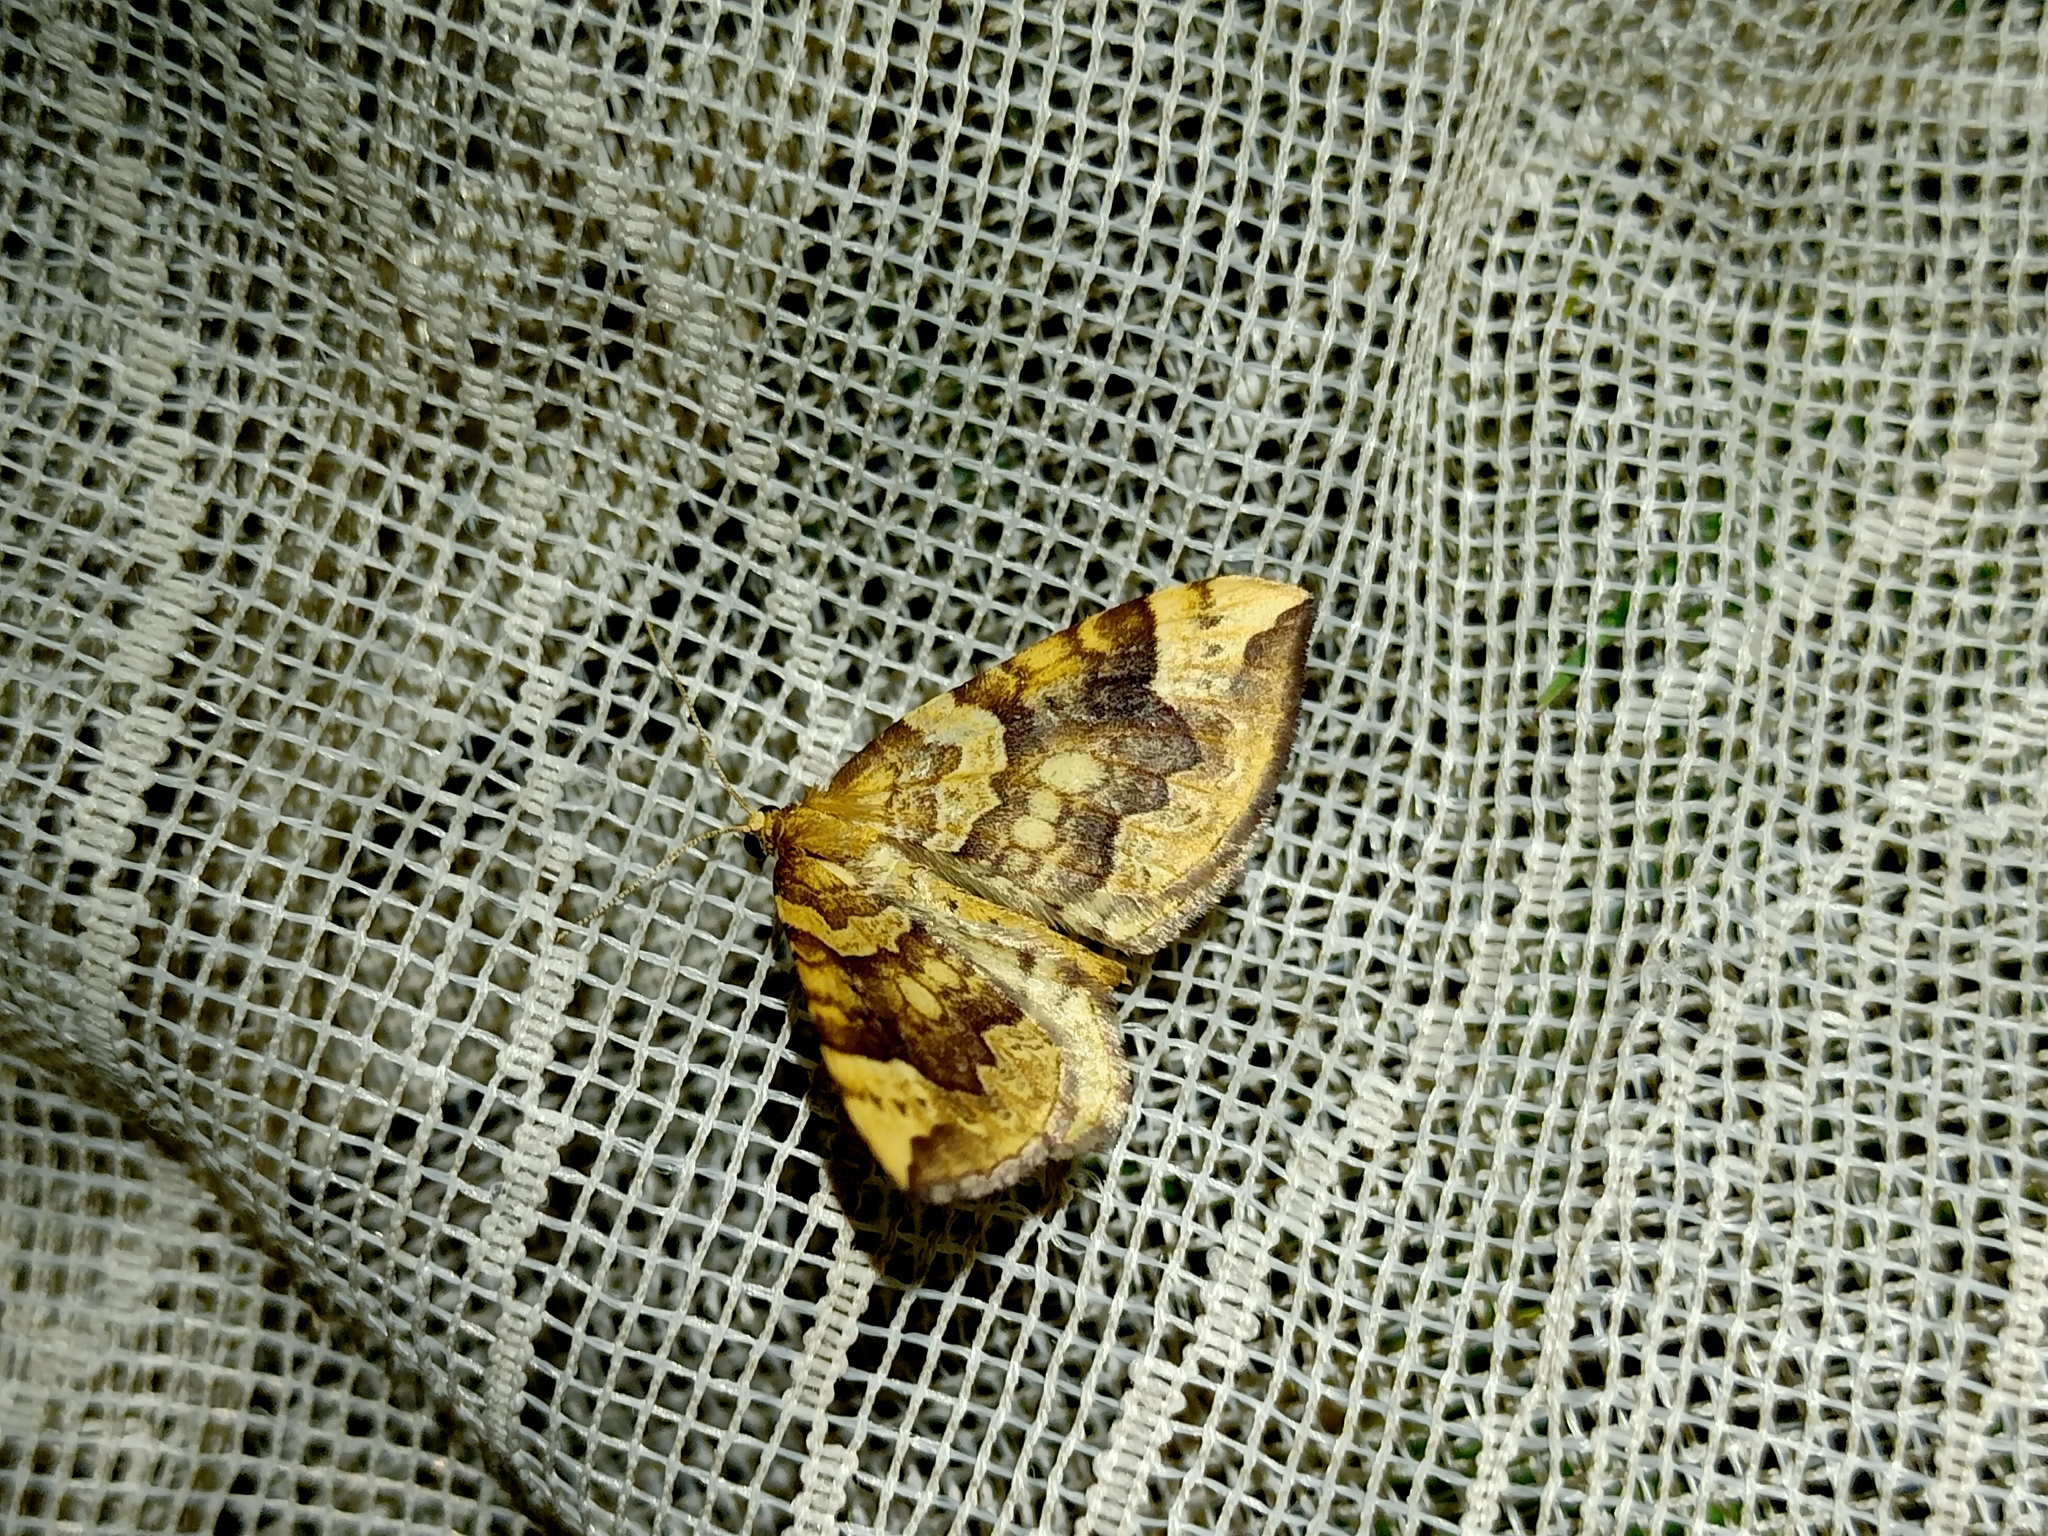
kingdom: Animalia
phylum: Arthropoda
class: Insecta
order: Lepidoptera
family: Geometridae
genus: Eulithis
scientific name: Eulithis populata
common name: Northern spinach
